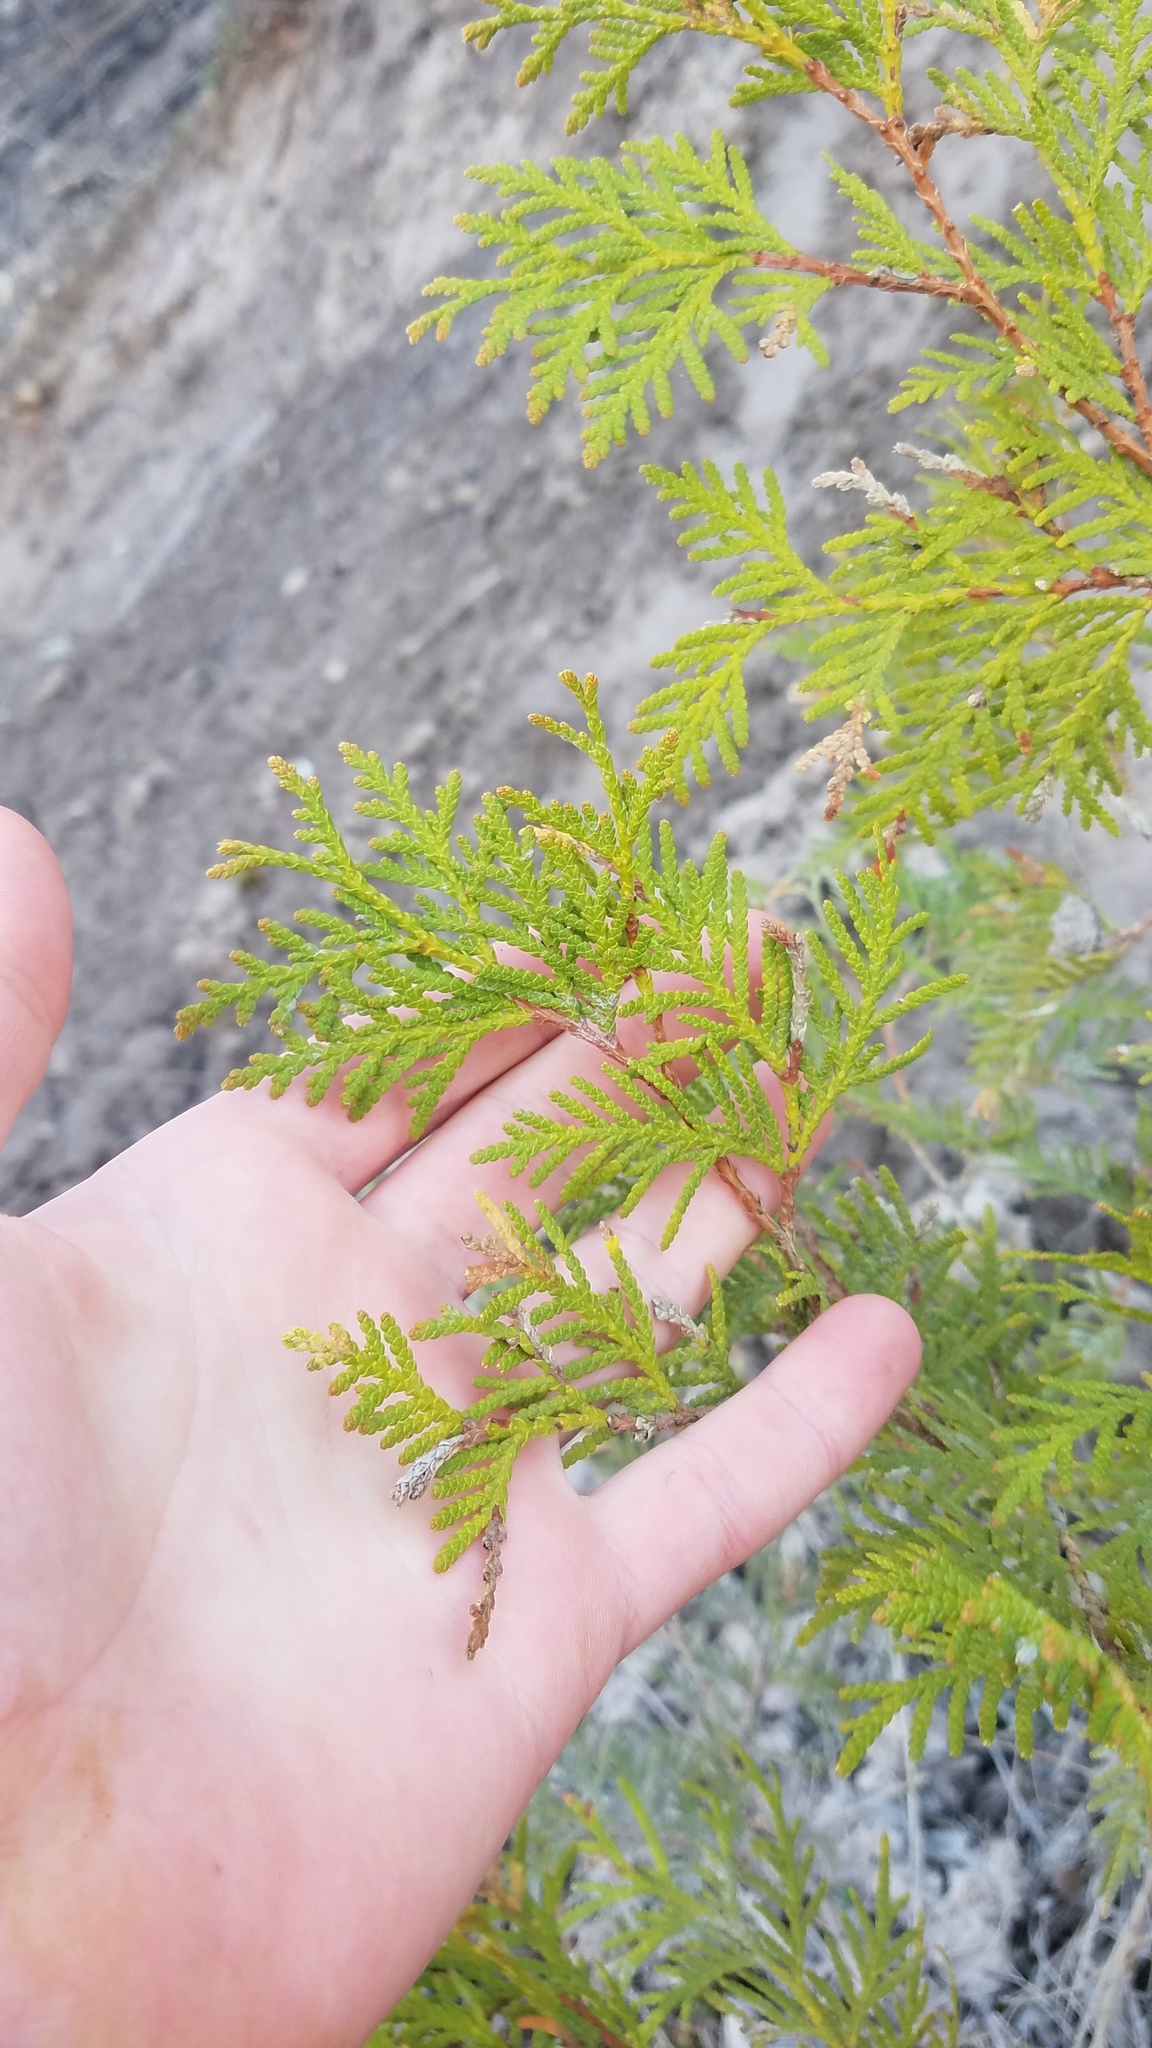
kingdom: Plantae
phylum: Tracheophyta
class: Pinopsida
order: Pinales
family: Cupressaceae
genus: Thuja
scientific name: Thuja occidentalis
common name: Northern white-cedar
